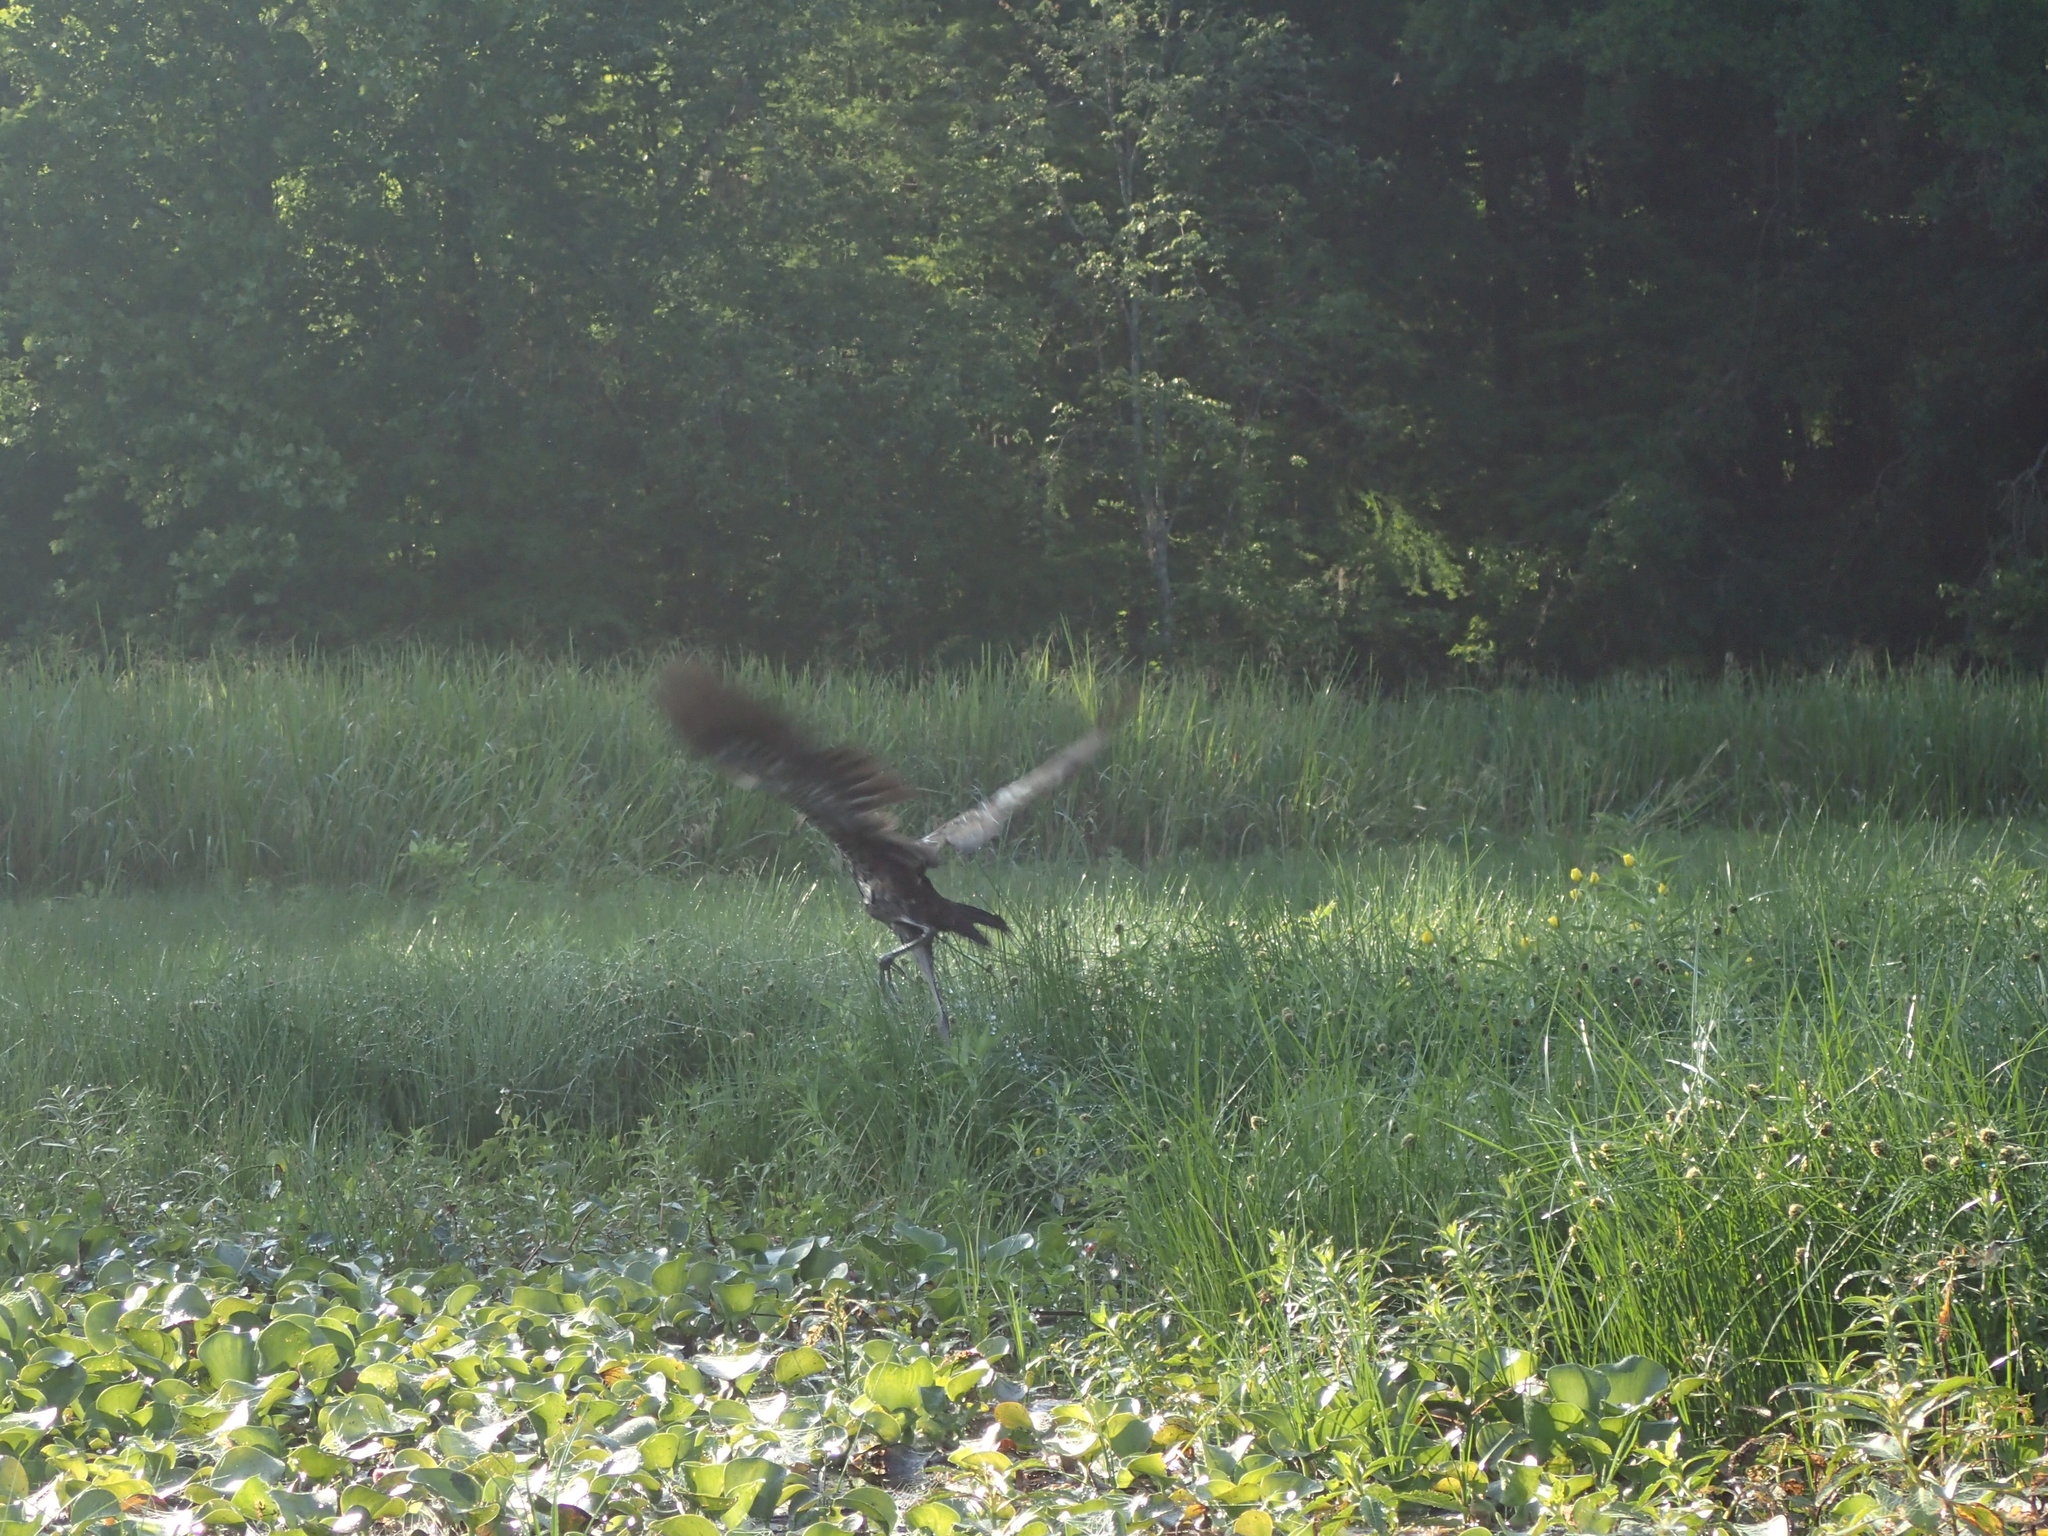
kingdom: Animalia
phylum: Chordata
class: Aves
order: Gruiformes
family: Aramidae
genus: Aramus
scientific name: Aramus guarauna
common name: Limpkin
